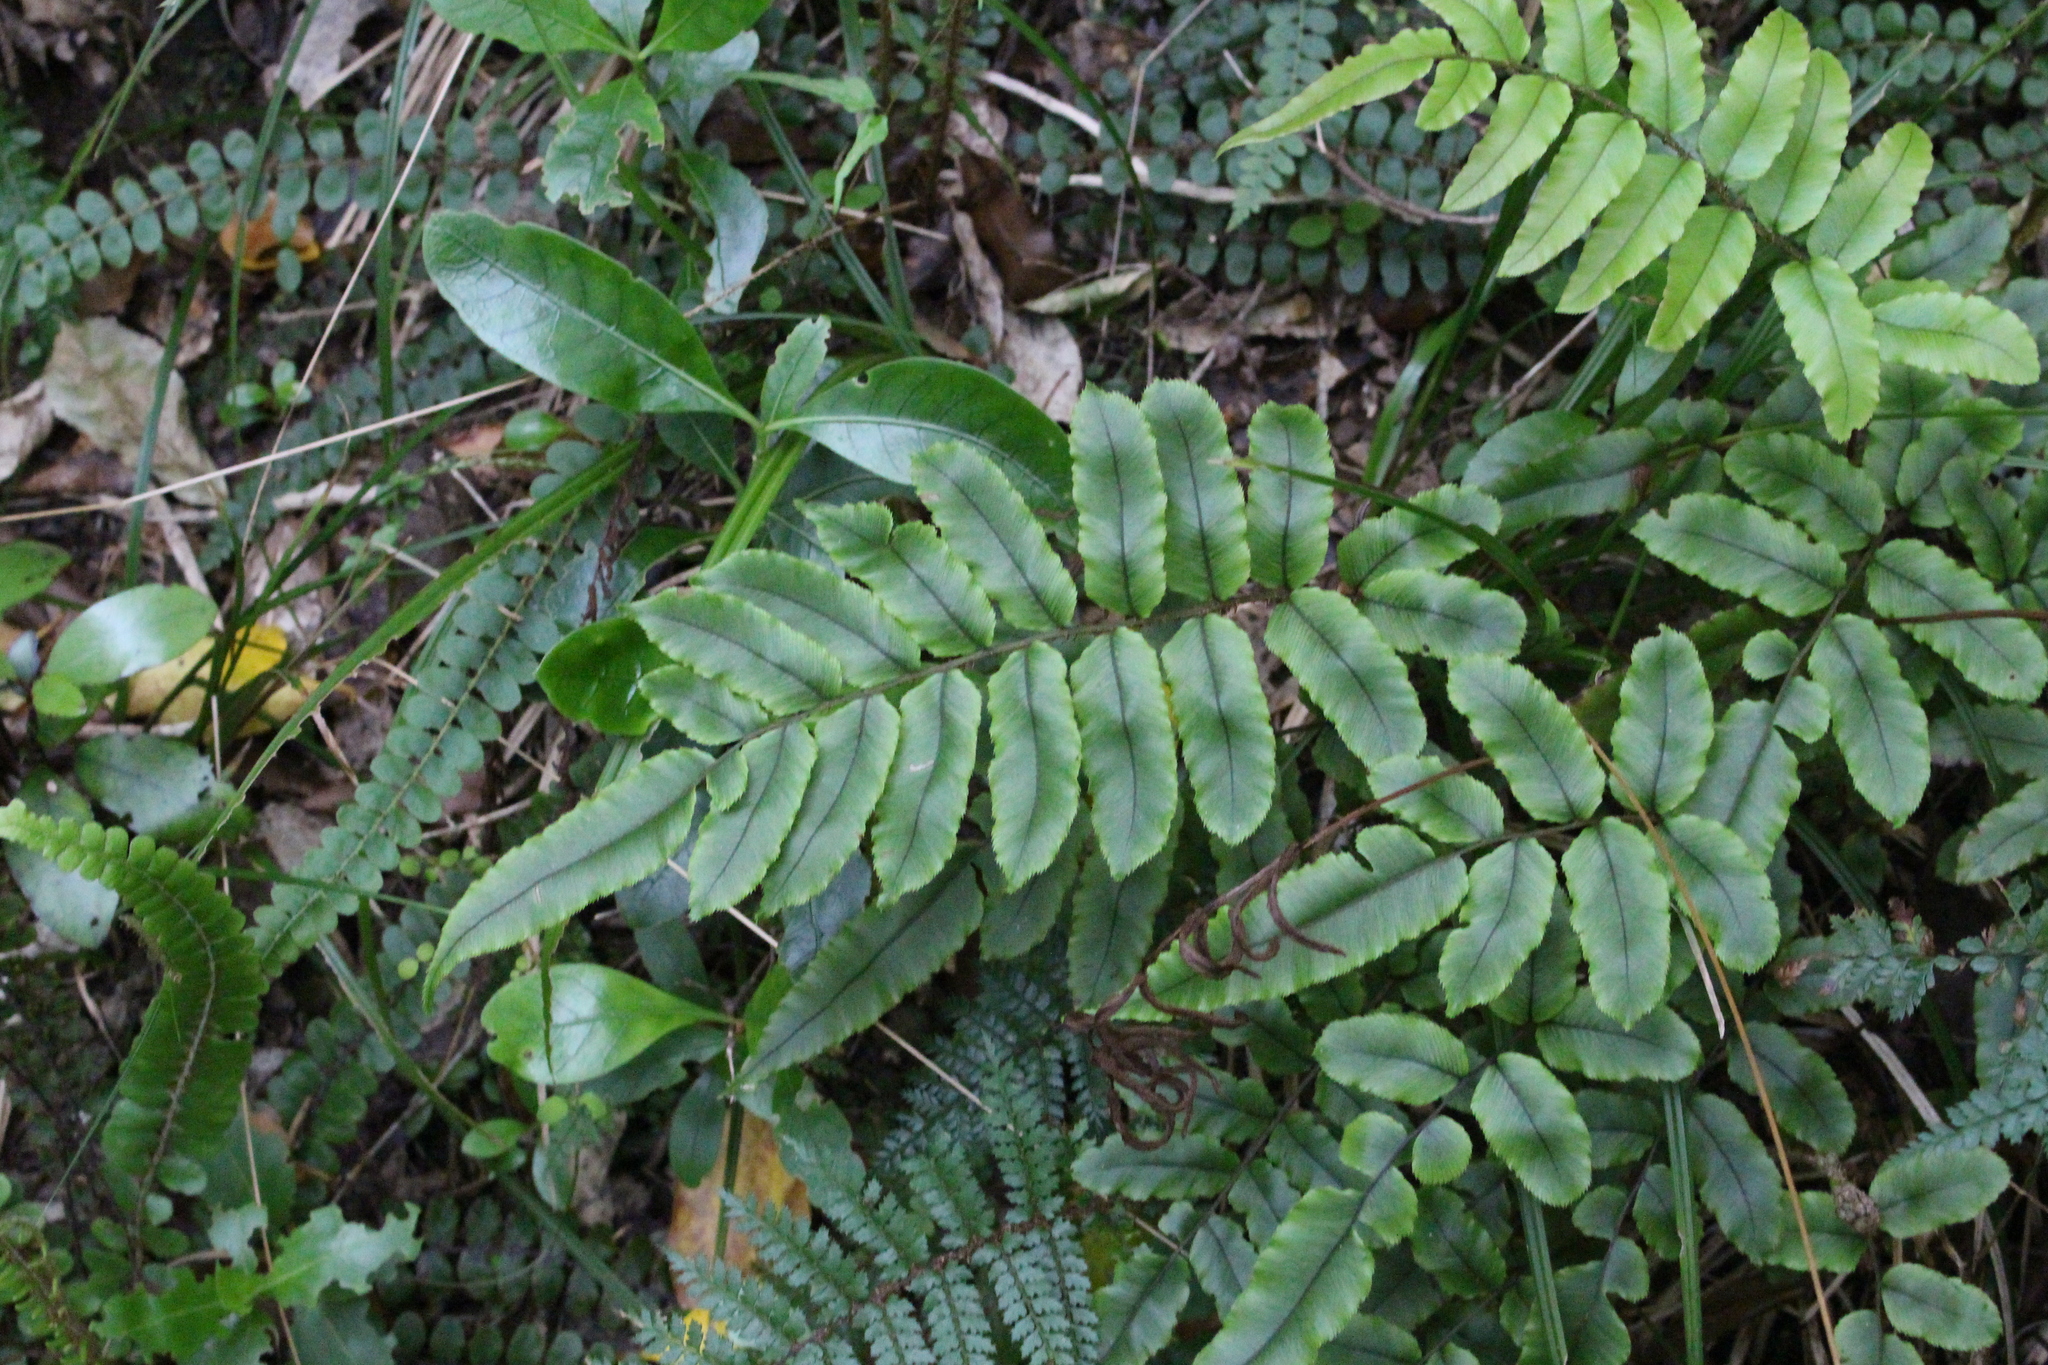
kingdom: Plantae
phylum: Tracheophyta
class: Polypodiopsida
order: Polypodiales
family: Blechnaceae
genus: Parablechnum
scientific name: Parablechnum procerum
